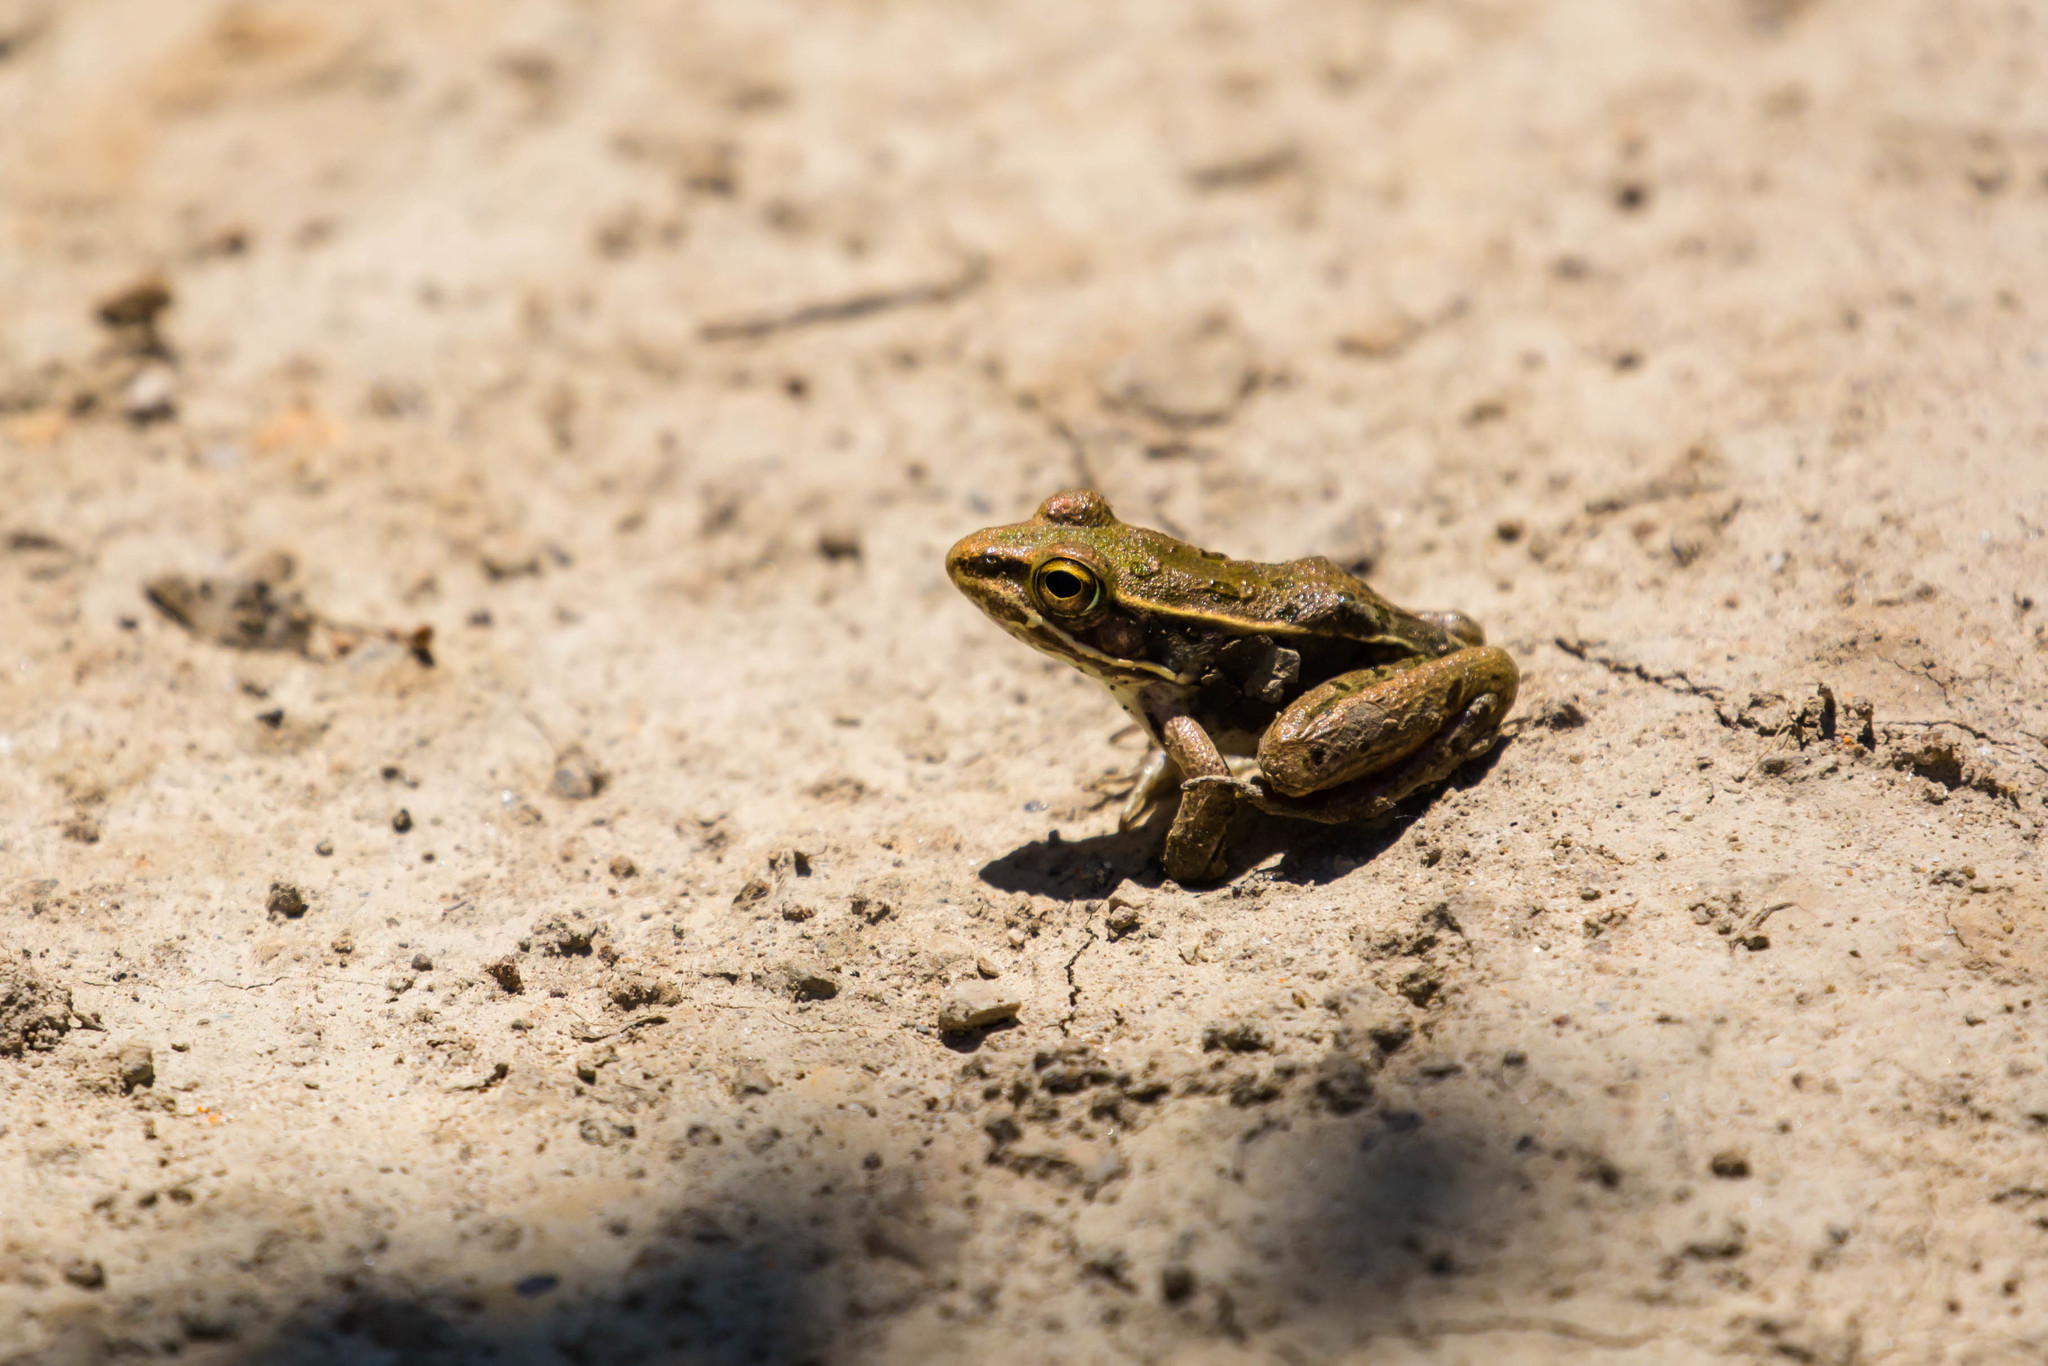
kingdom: Animalia
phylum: Chordata
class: Amphibia
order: Anura
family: Ranidae
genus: Lithobates
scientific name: Lithobates sphenocephalus
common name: Southern leopard frog
